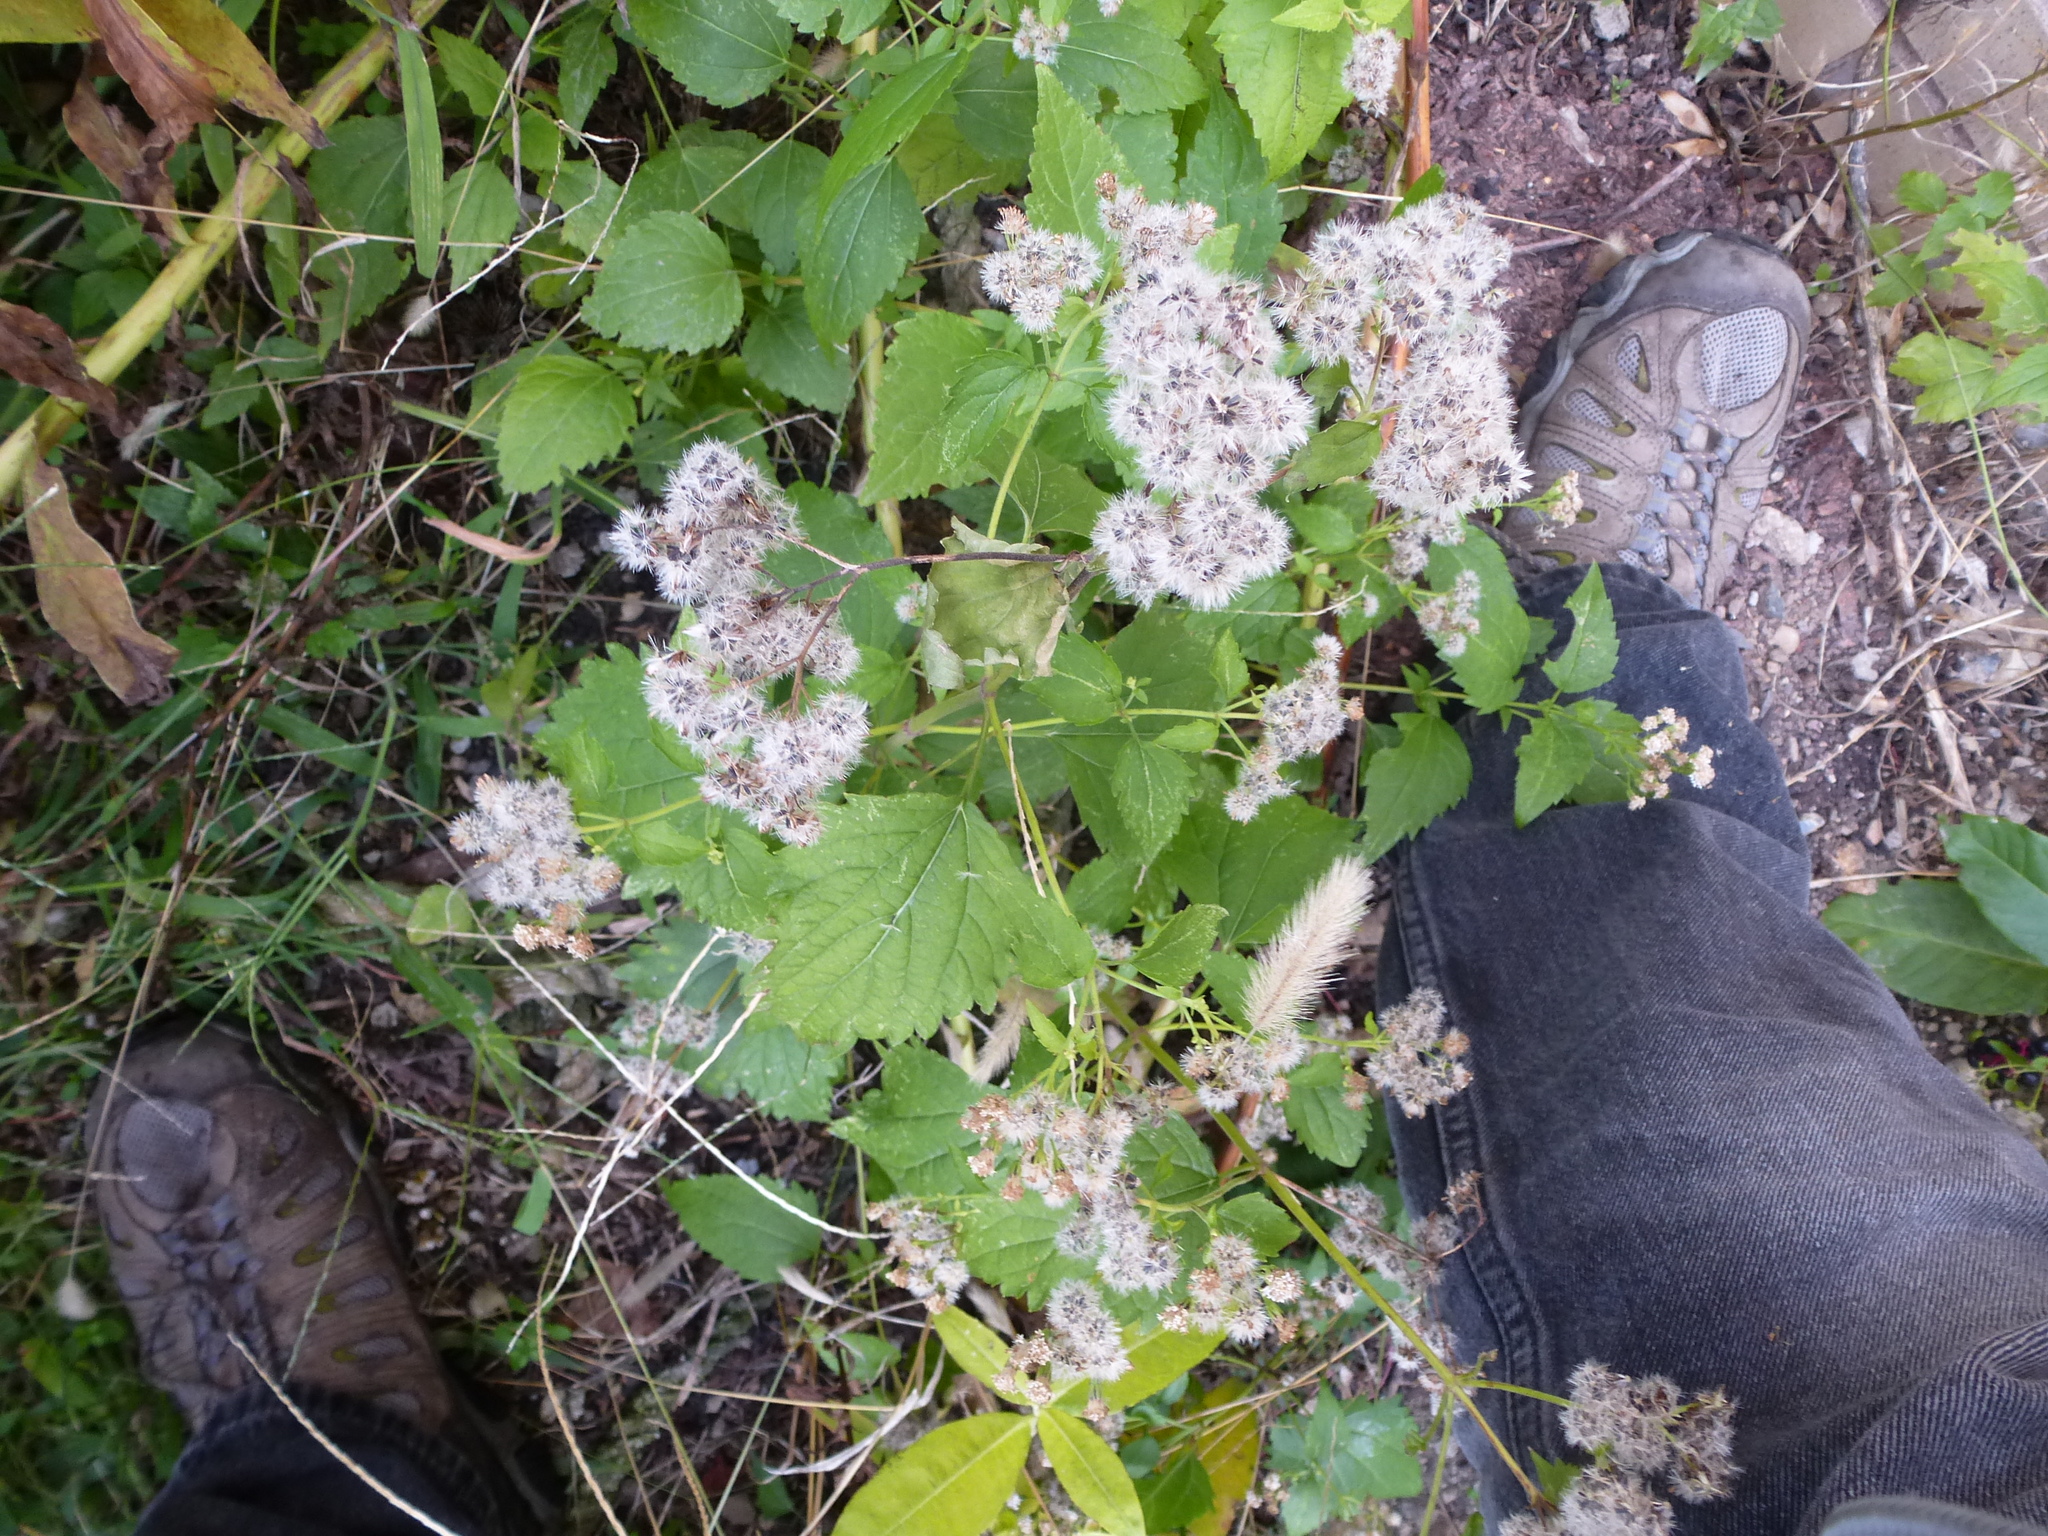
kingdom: Plantae
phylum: Tracheophyta
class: Magnoliopsida
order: Asterales
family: Asteraceae
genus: Ageratina
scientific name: Ageratina altissima
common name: White snakeroot
